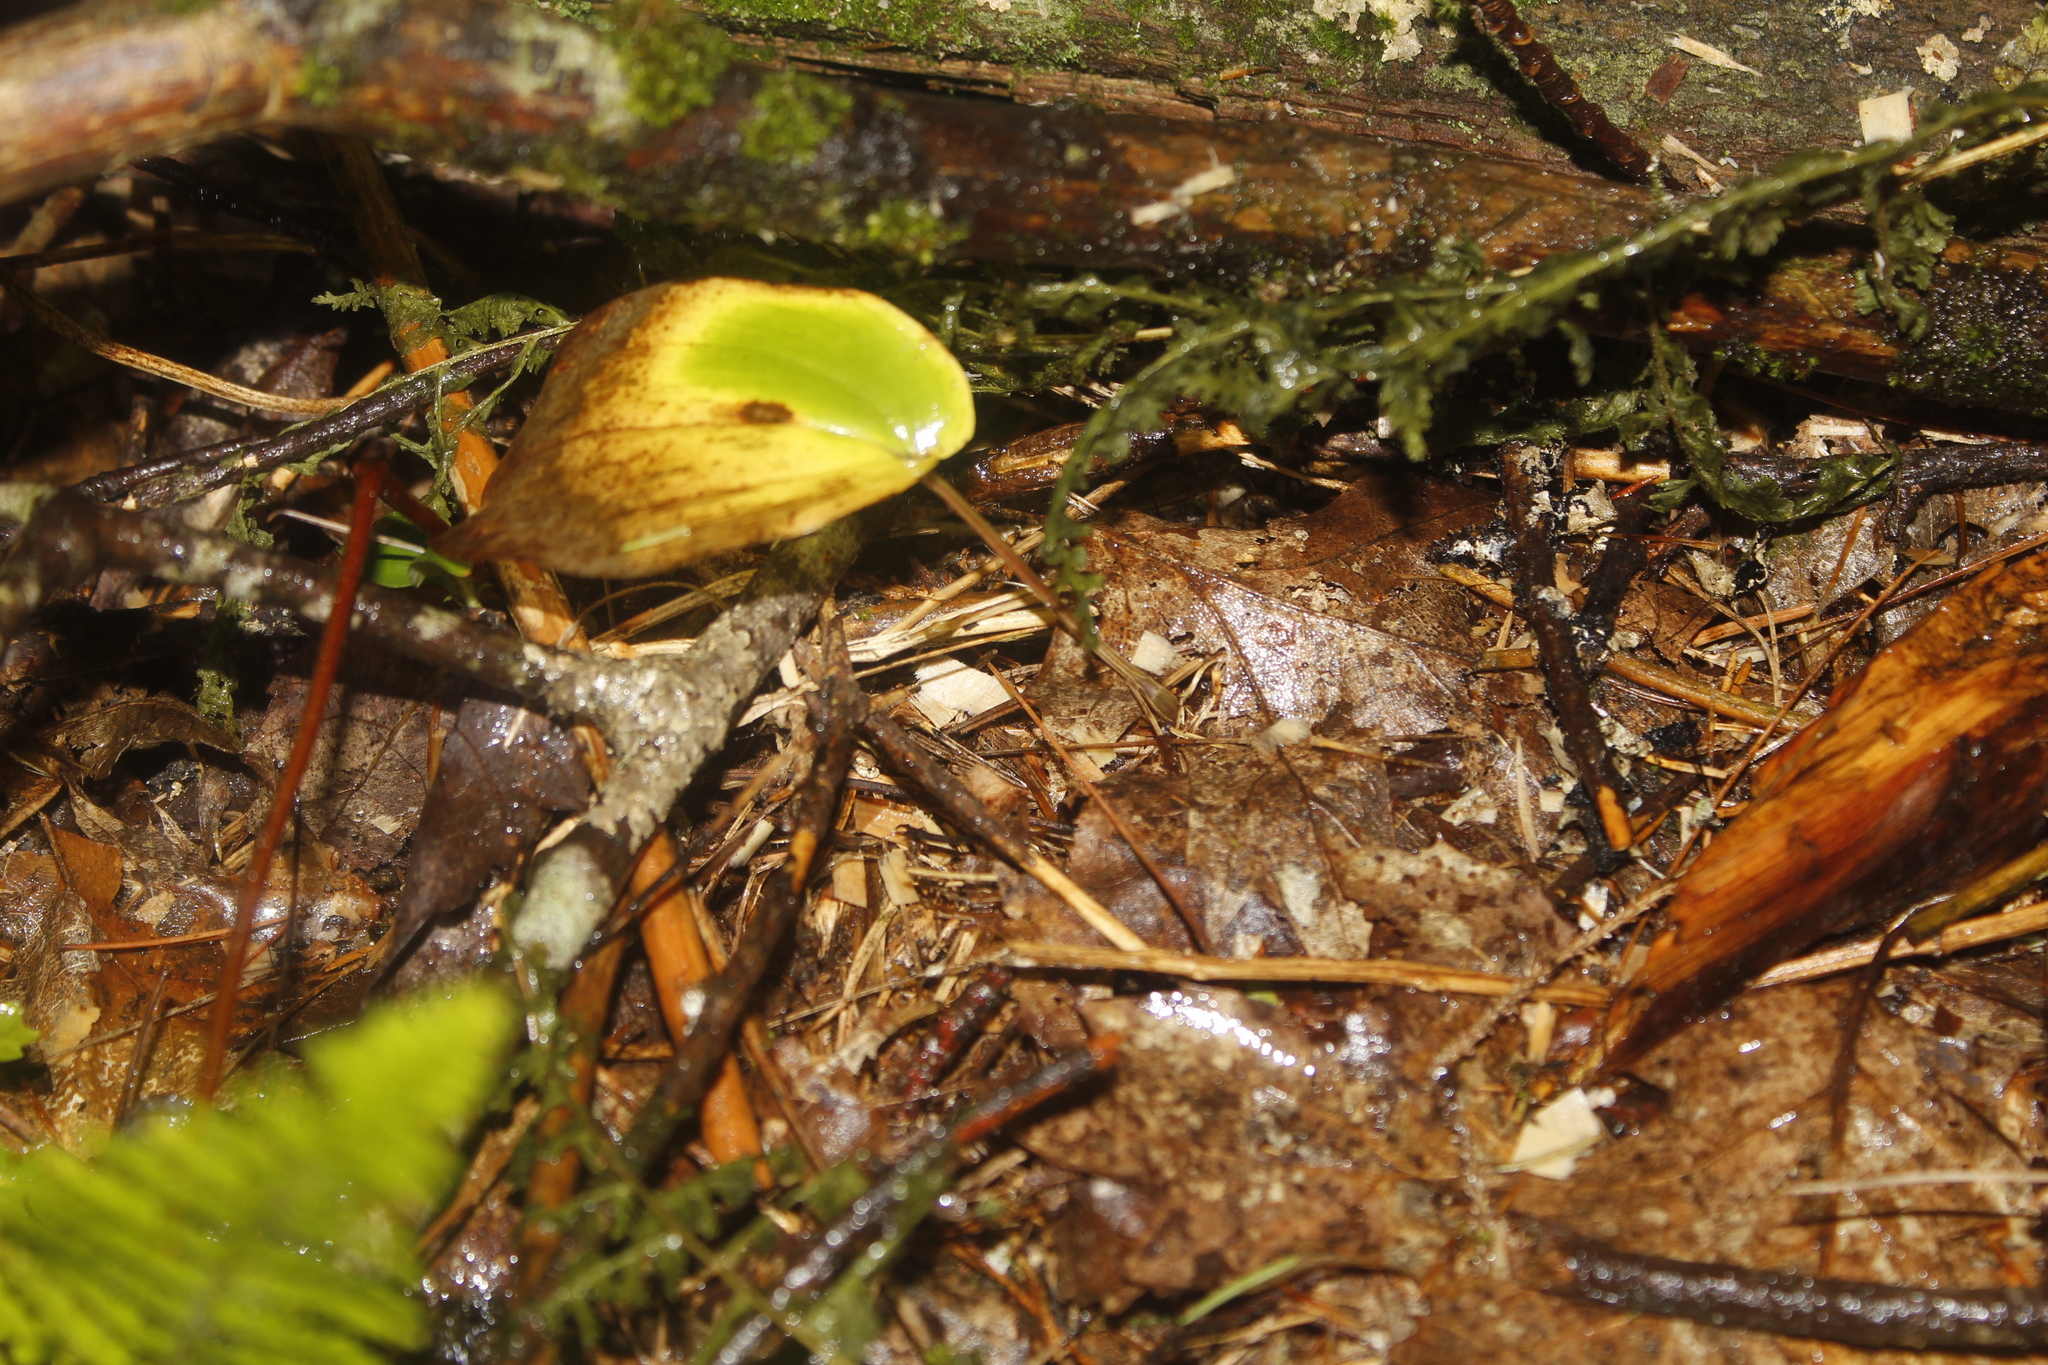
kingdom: Plantae
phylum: Tracheophyta
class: Liliopsida
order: Asparagales
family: Asparagaceae
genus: Maianthemum
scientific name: Maianthemum canadense
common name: False lily-of-the-valley
